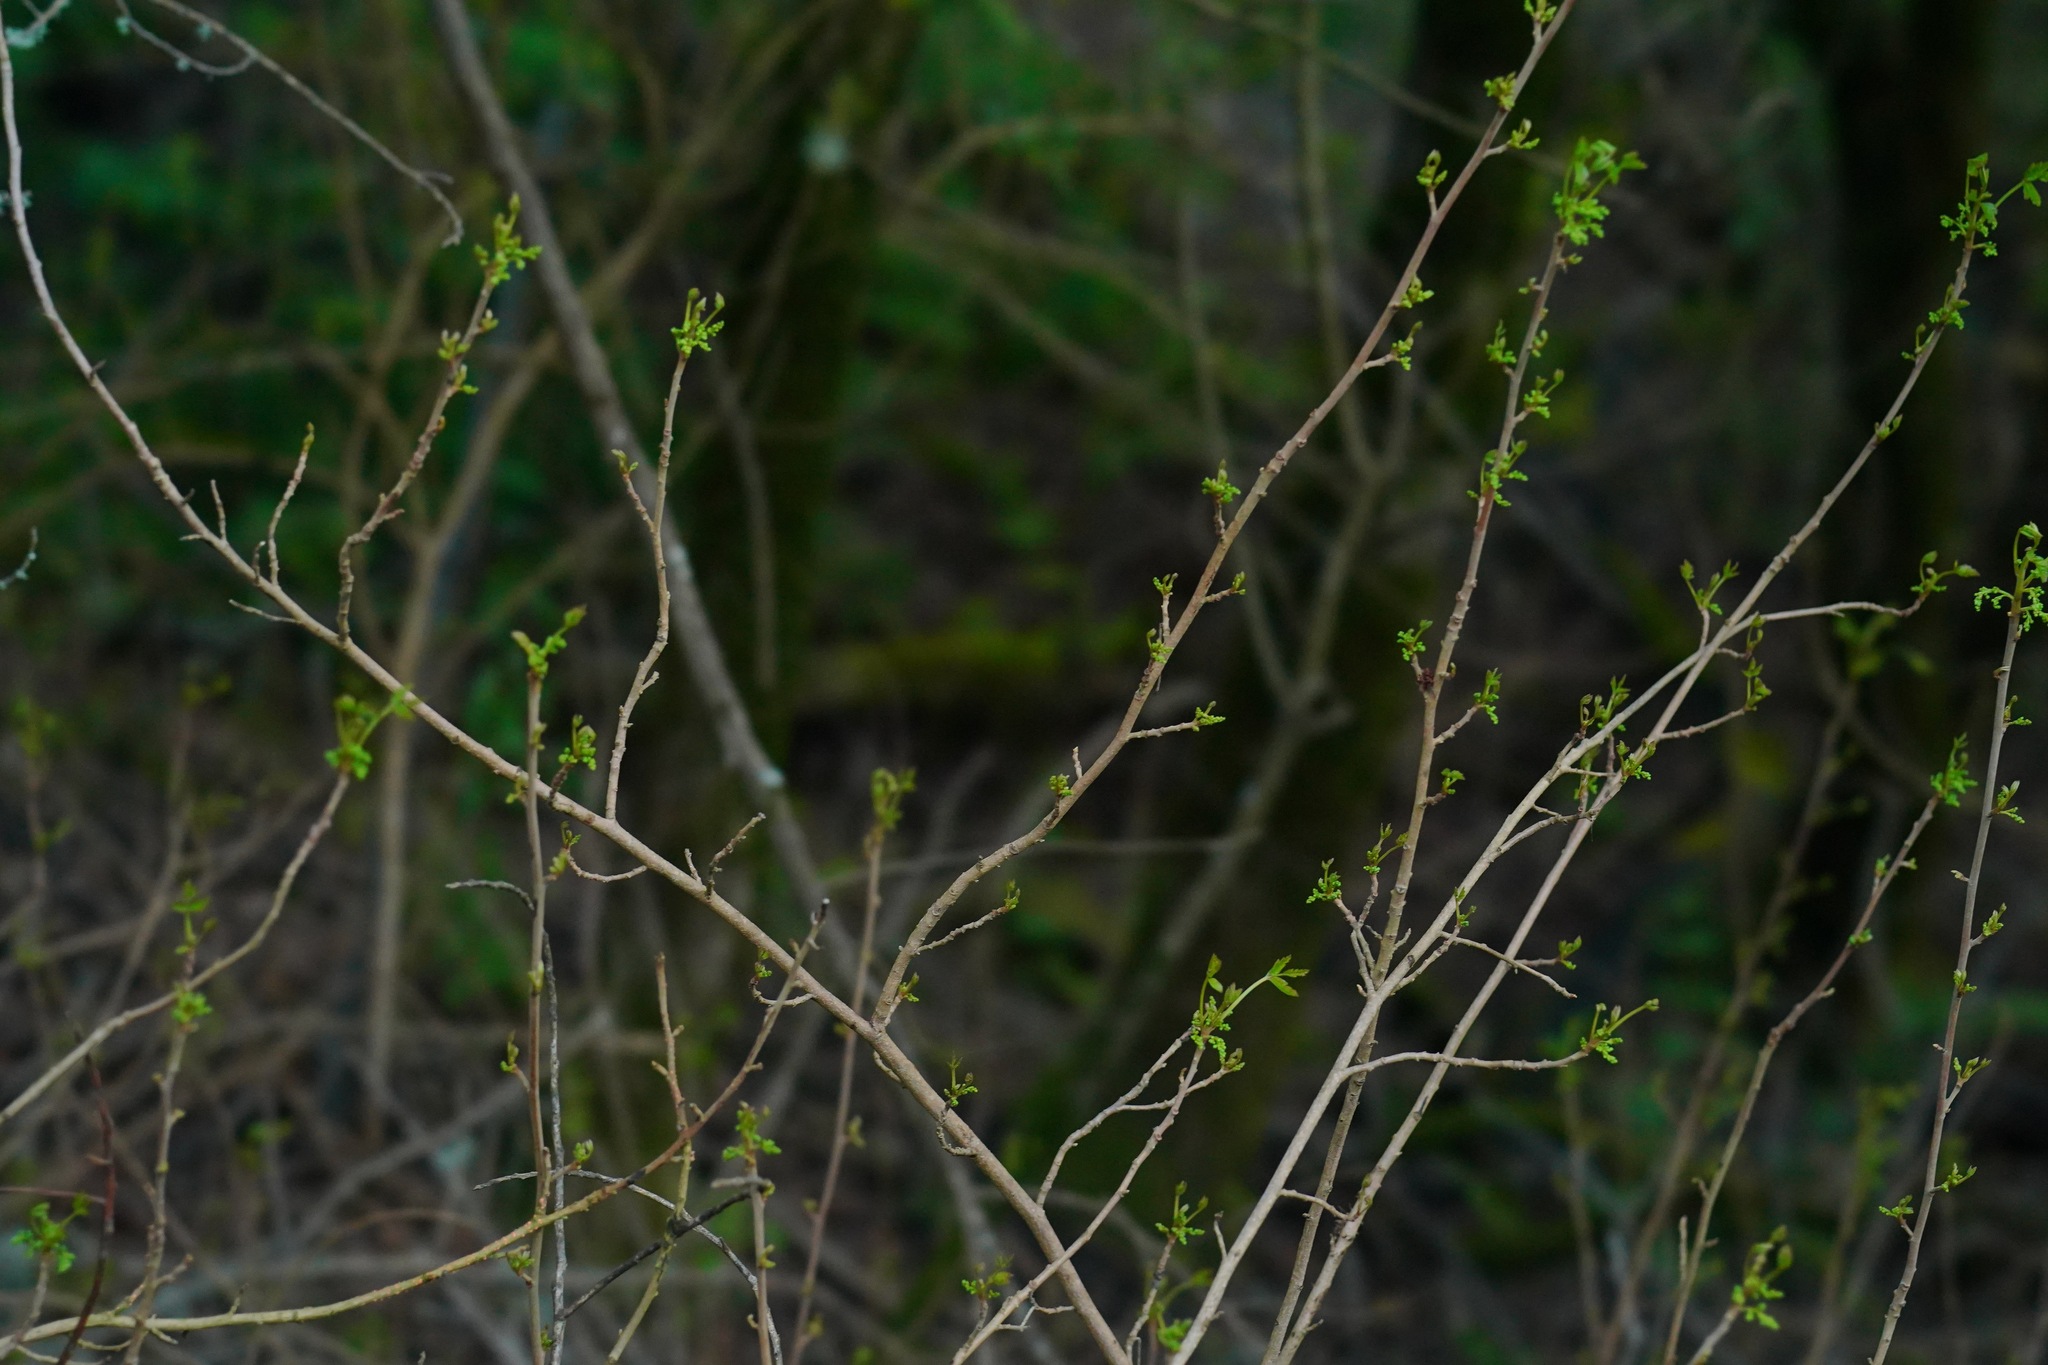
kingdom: Plantae
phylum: Tracheophyta
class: Magnoliopsida
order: Sapindales
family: Anacardiaceae
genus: Toxicodendron
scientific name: Toxicodendron diversilobum
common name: Pacific poison-oak
